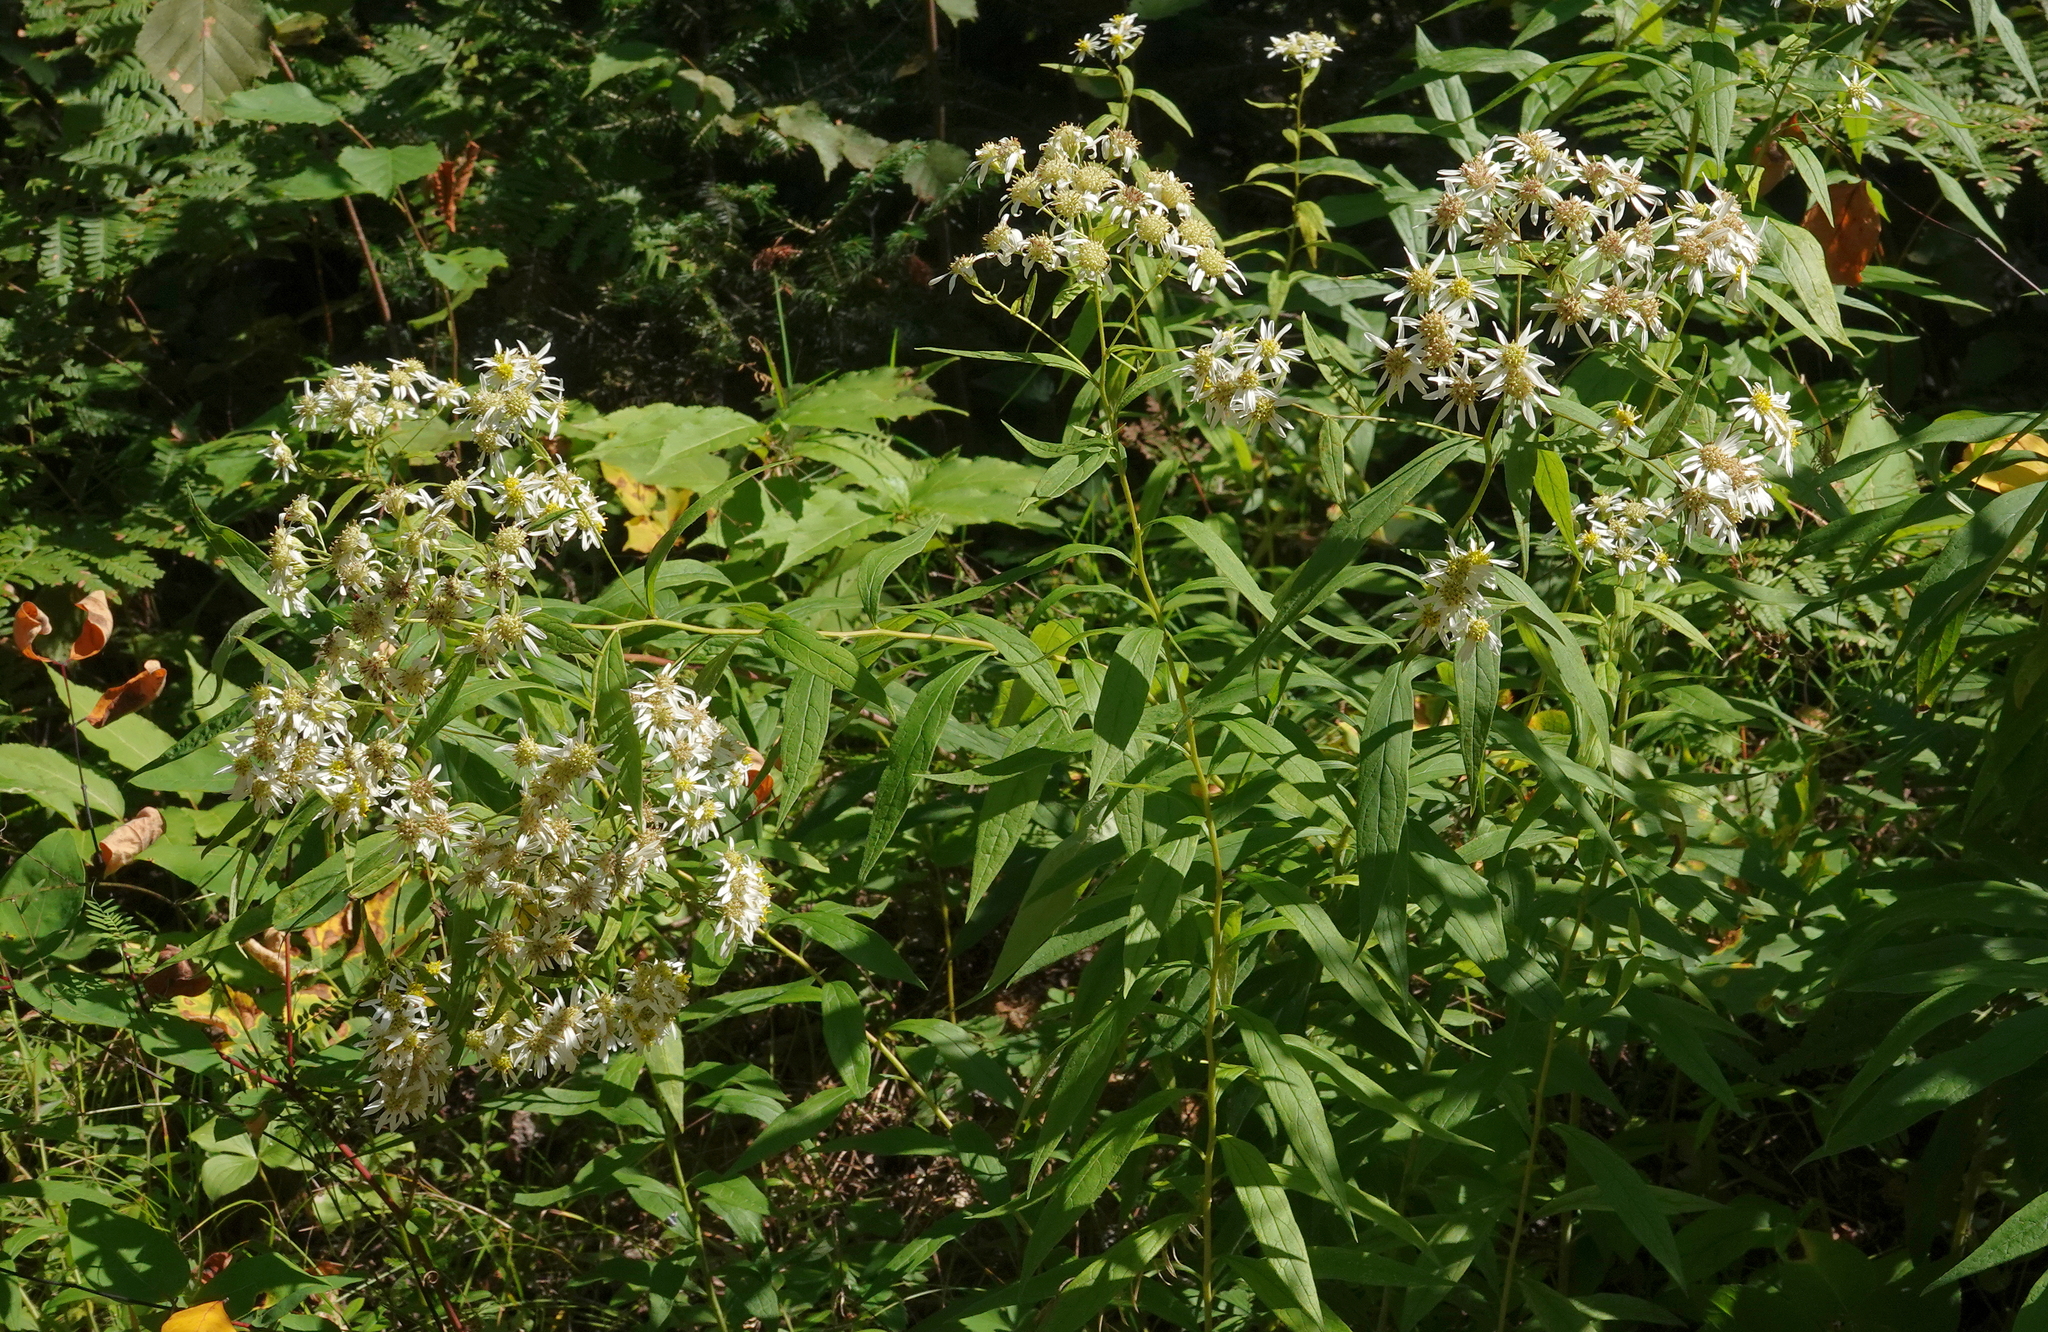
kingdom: Plantae
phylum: Tracheophyta
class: Magnoliopsida
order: Asterales
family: Asteraceae
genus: Doellingeria
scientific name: Doellingeria umbellata
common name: Flat-top white aster
